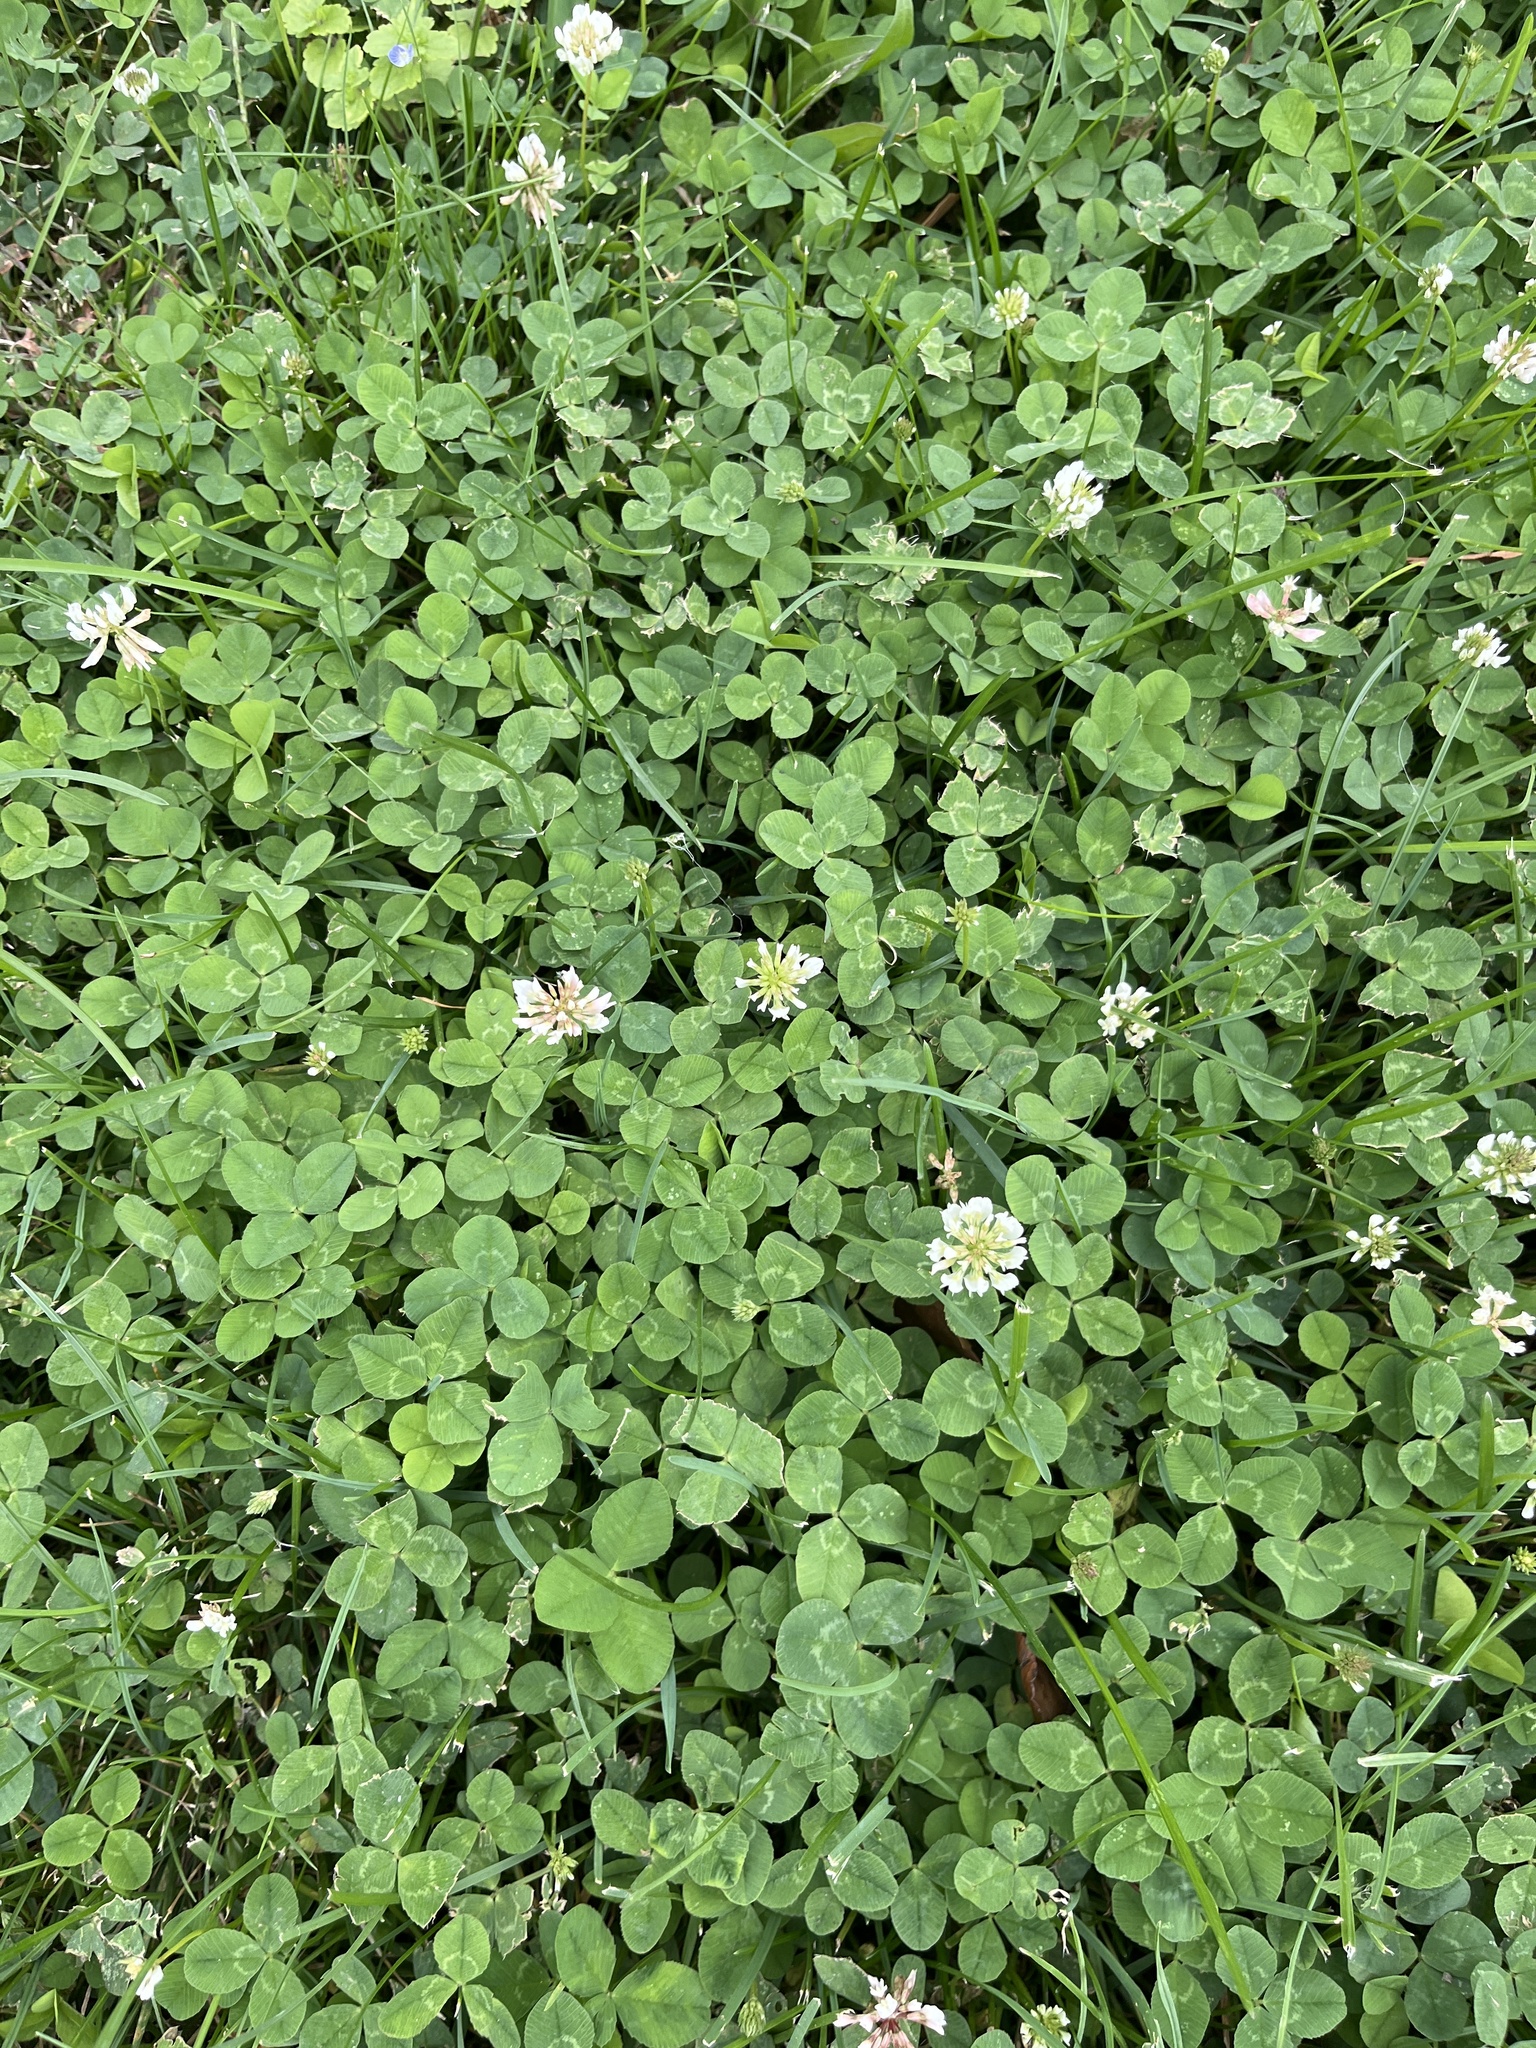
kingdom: Plantae
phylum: Tracheophyta
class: Magnoliopsida
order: Fabales
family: Fabaceae
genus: Trifolium
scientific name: Trifolium repens
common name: White clover
